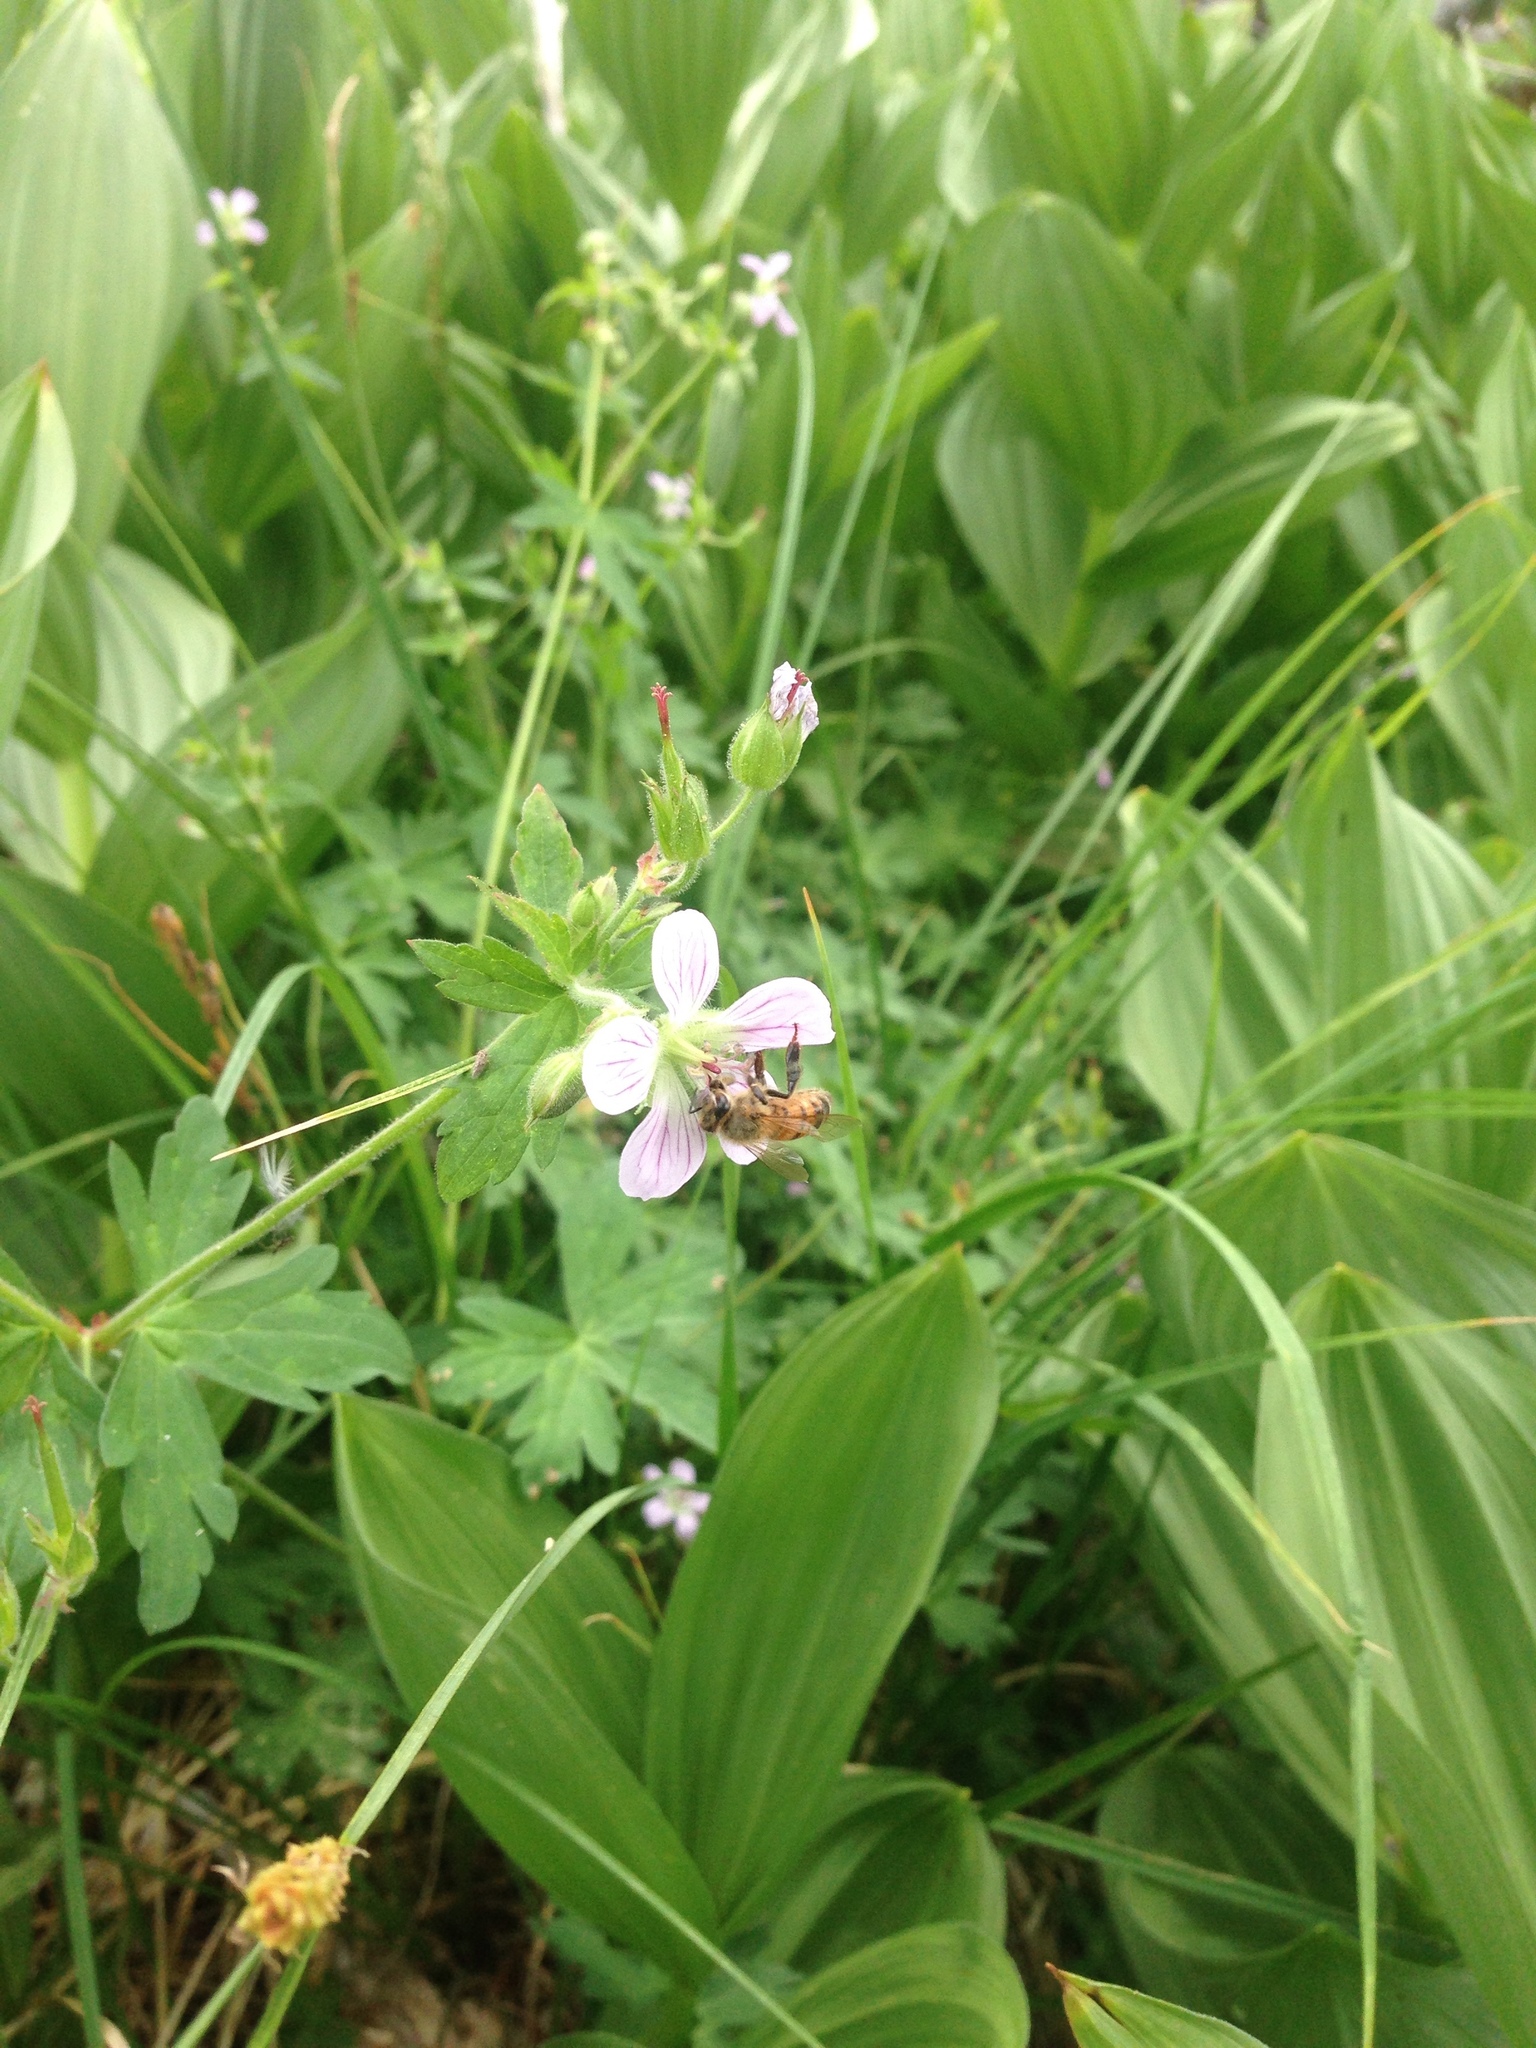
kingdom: Plantae
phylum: Tracheophyta
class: Magnoliopsida
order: Geraniales
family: Geraniaceae
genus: Geranium
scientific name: Geranium californicum
